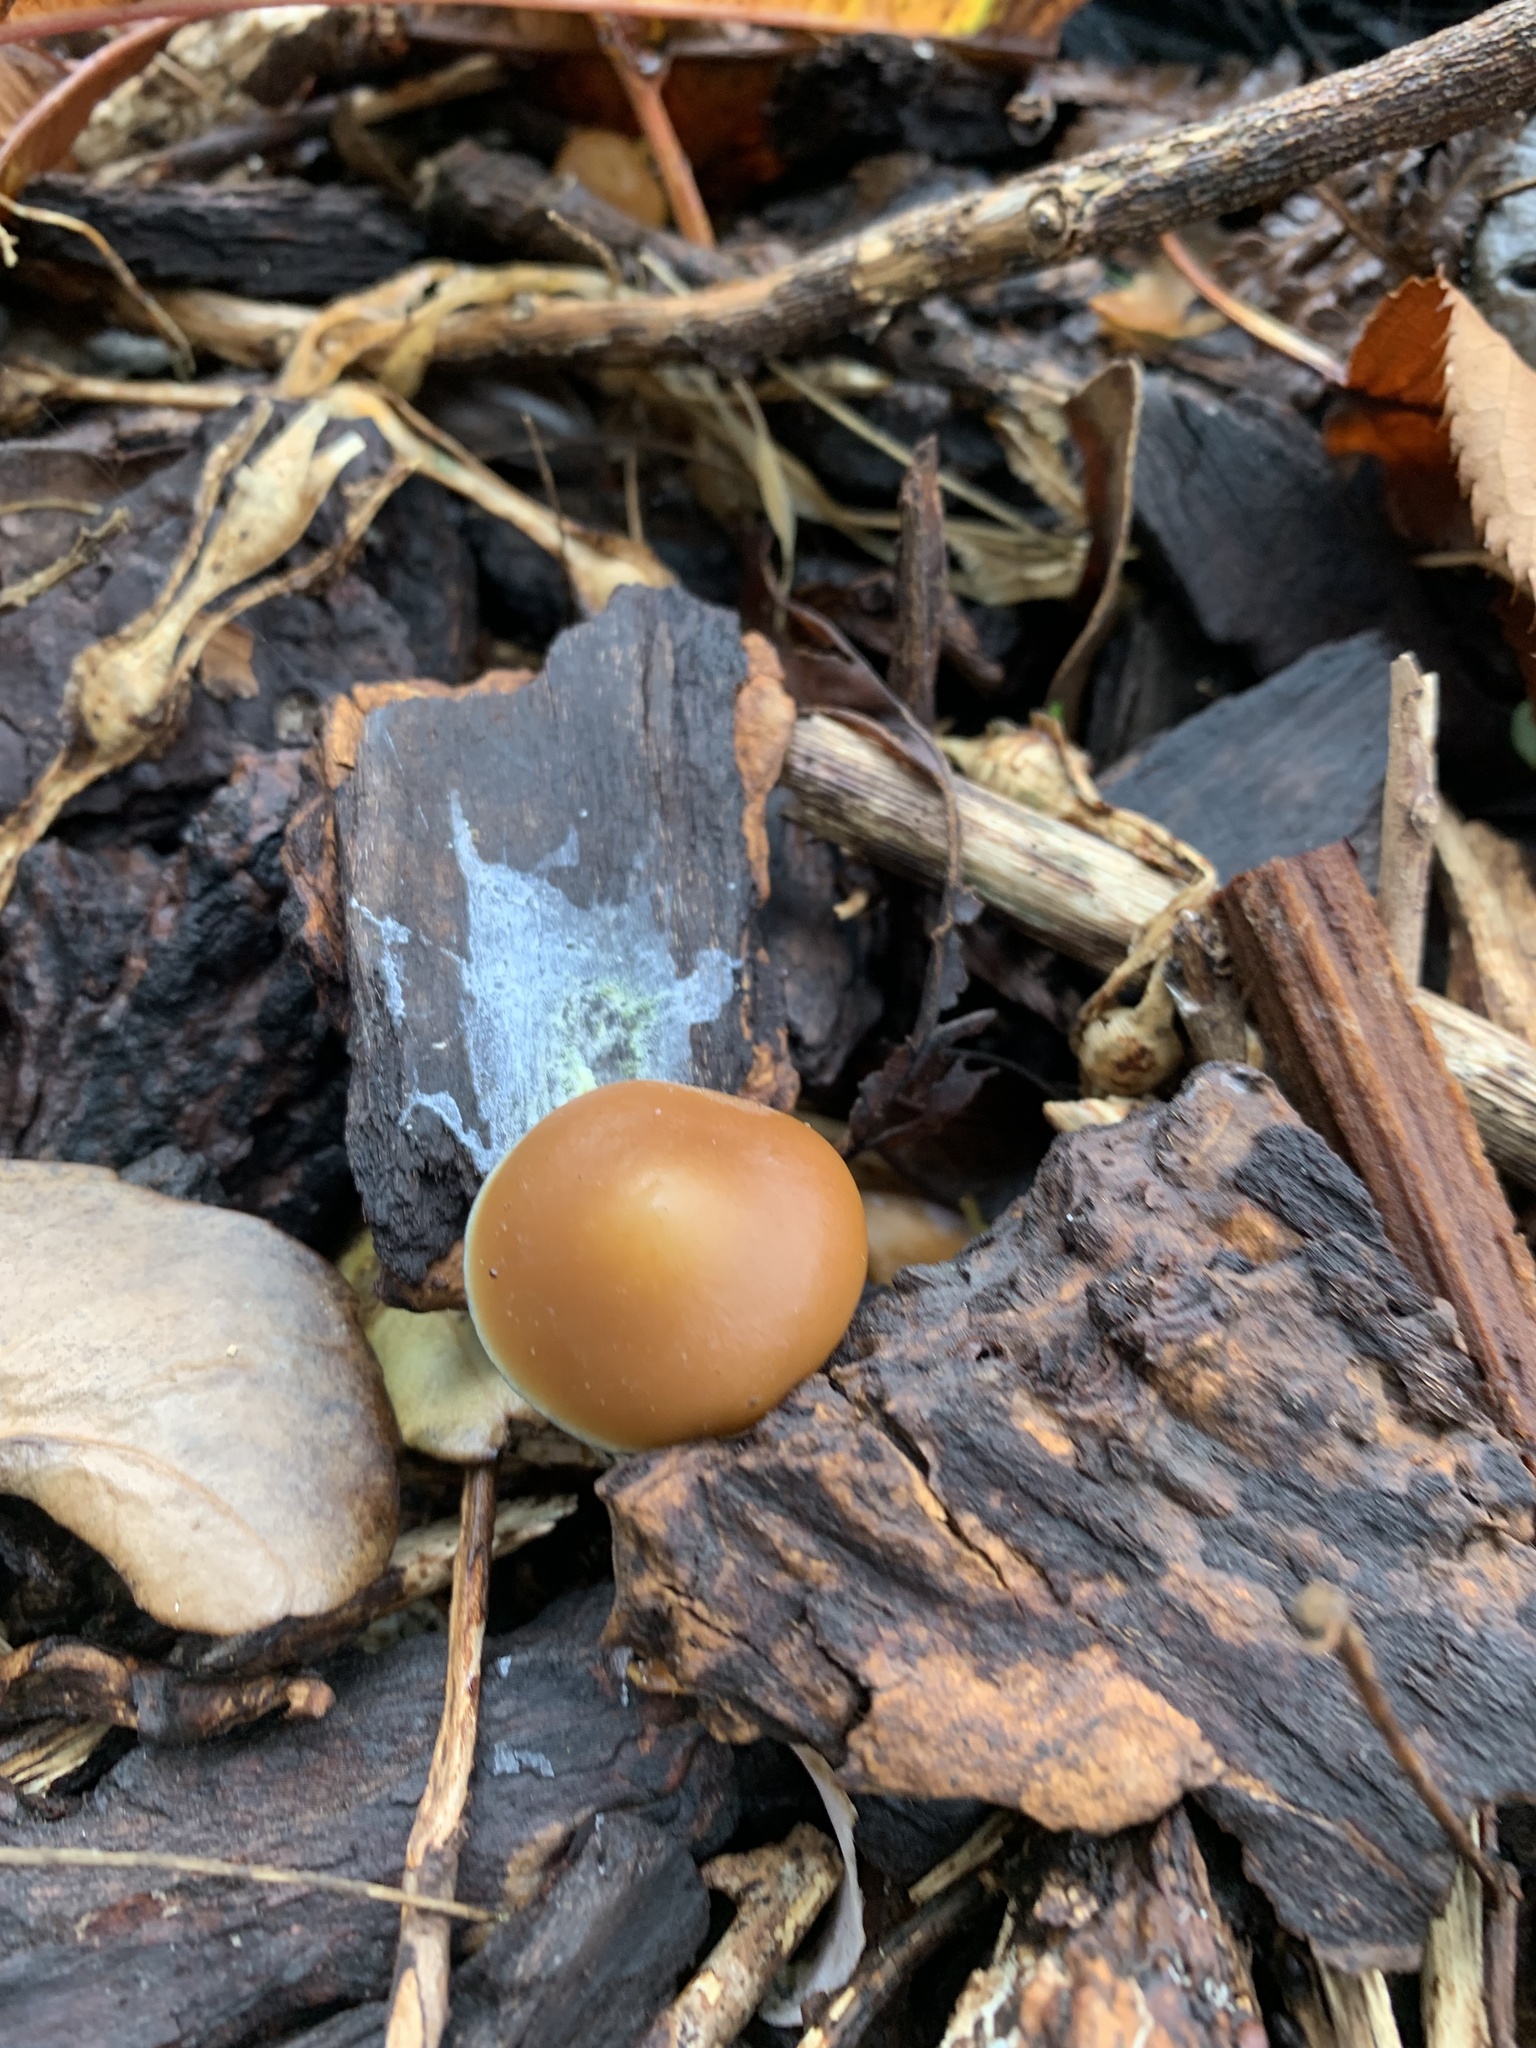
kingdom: Fungi
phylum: Basidiomycota
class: Agaricomycetes
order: Agaricales
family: Hymenogastraceae
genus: Psilocybe
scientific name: Psilocybe subaeruginosa
